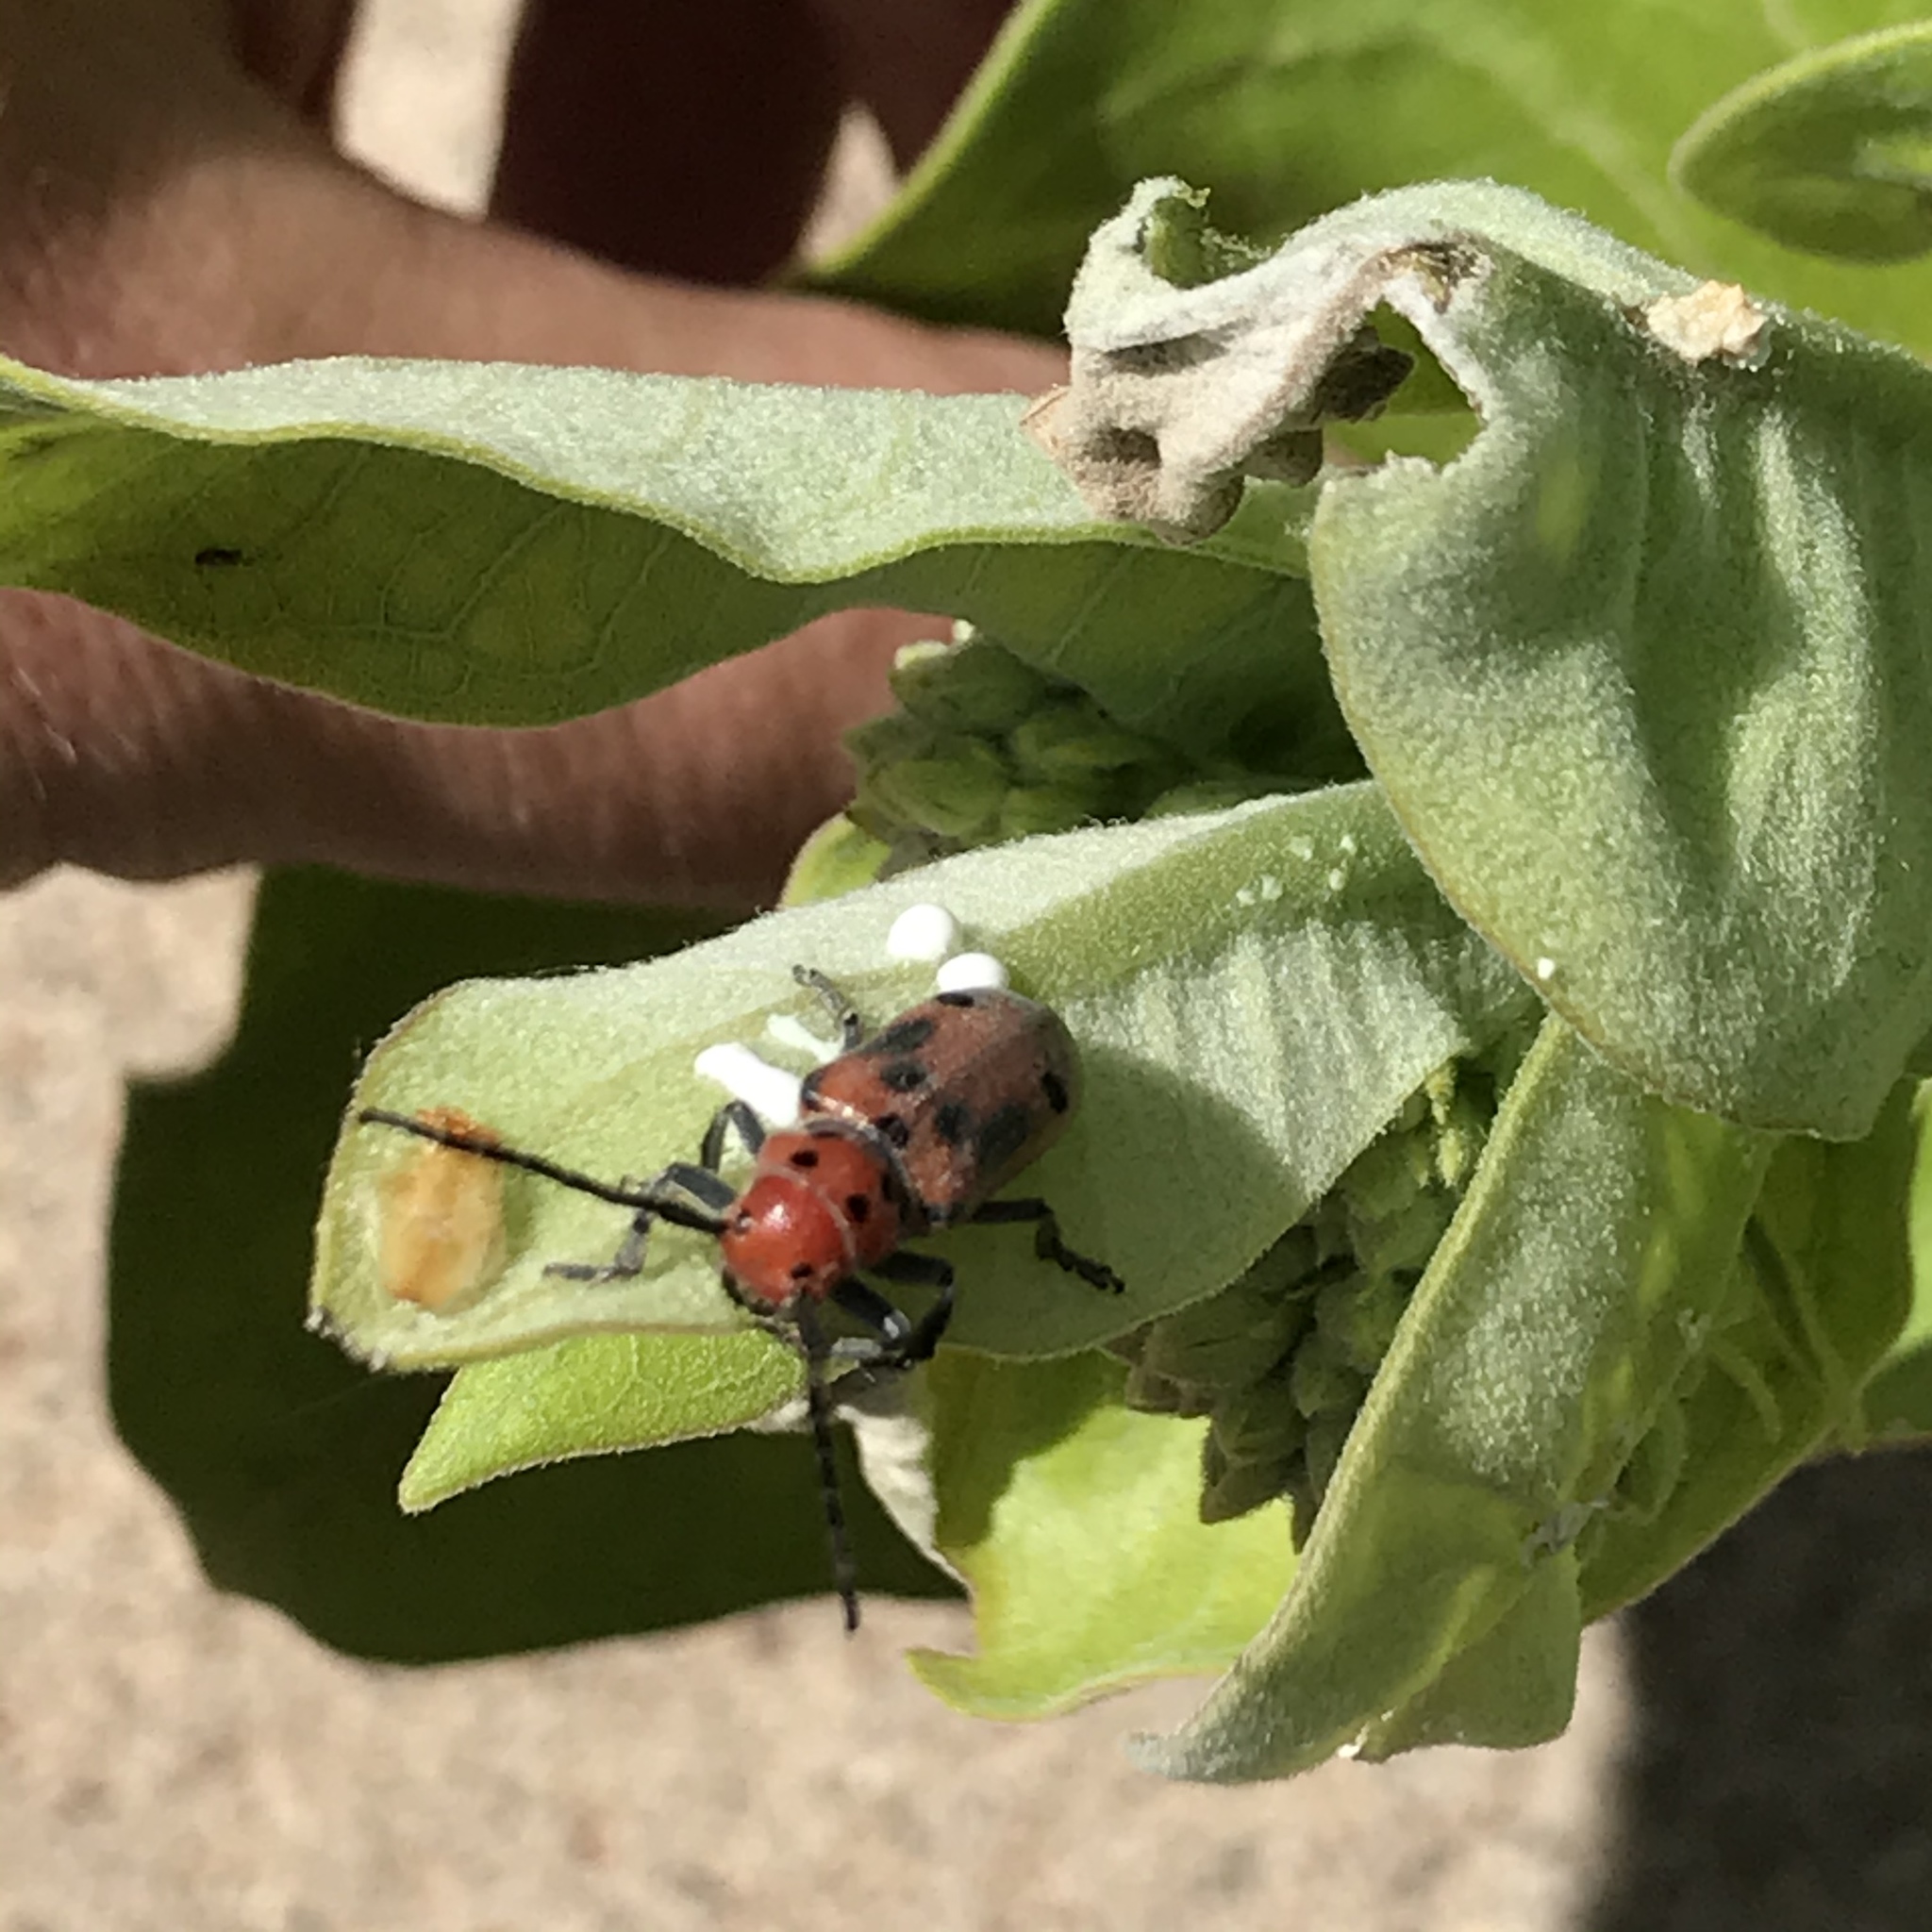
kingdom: Animalia
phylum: Arthropoda
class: Insecta
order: Coleoptera
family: Cerambycidae
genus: Tetraopes
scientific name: Tetraopes tetrophthalmus
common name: Red milkweed beetle
